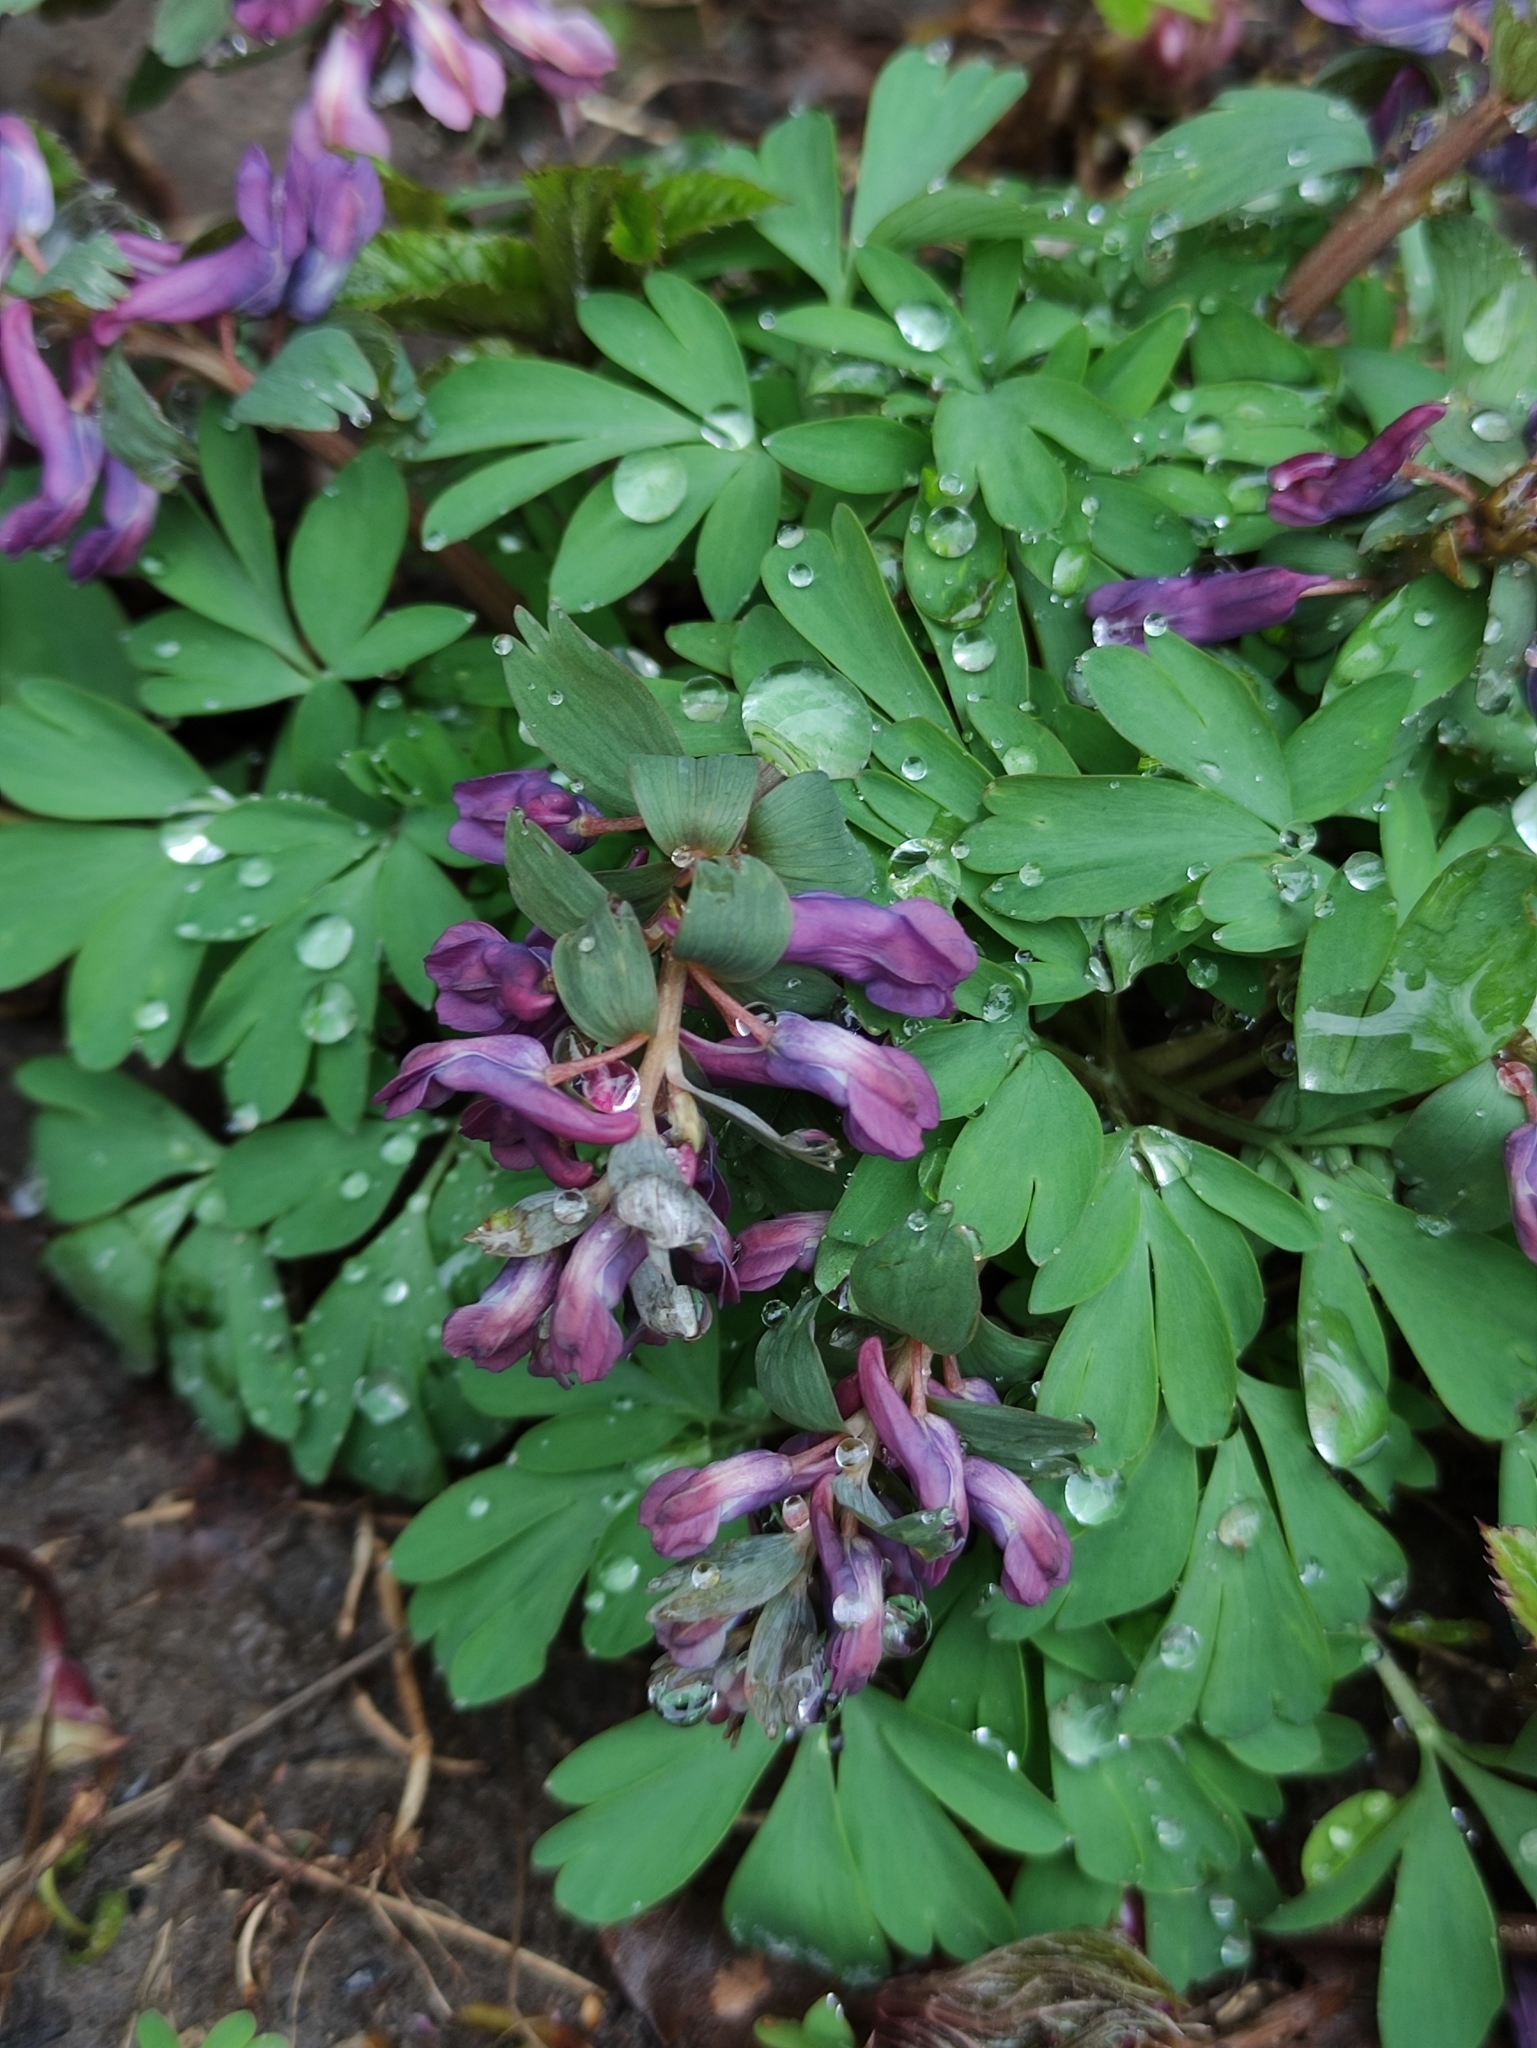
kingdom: Plantae
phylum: Tracheophyta
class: Magnoliopsida
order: Ranunculales
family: Papaveraceae
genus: Corydalis
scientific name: Corydalis solida
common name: Bird-in-a-bush
